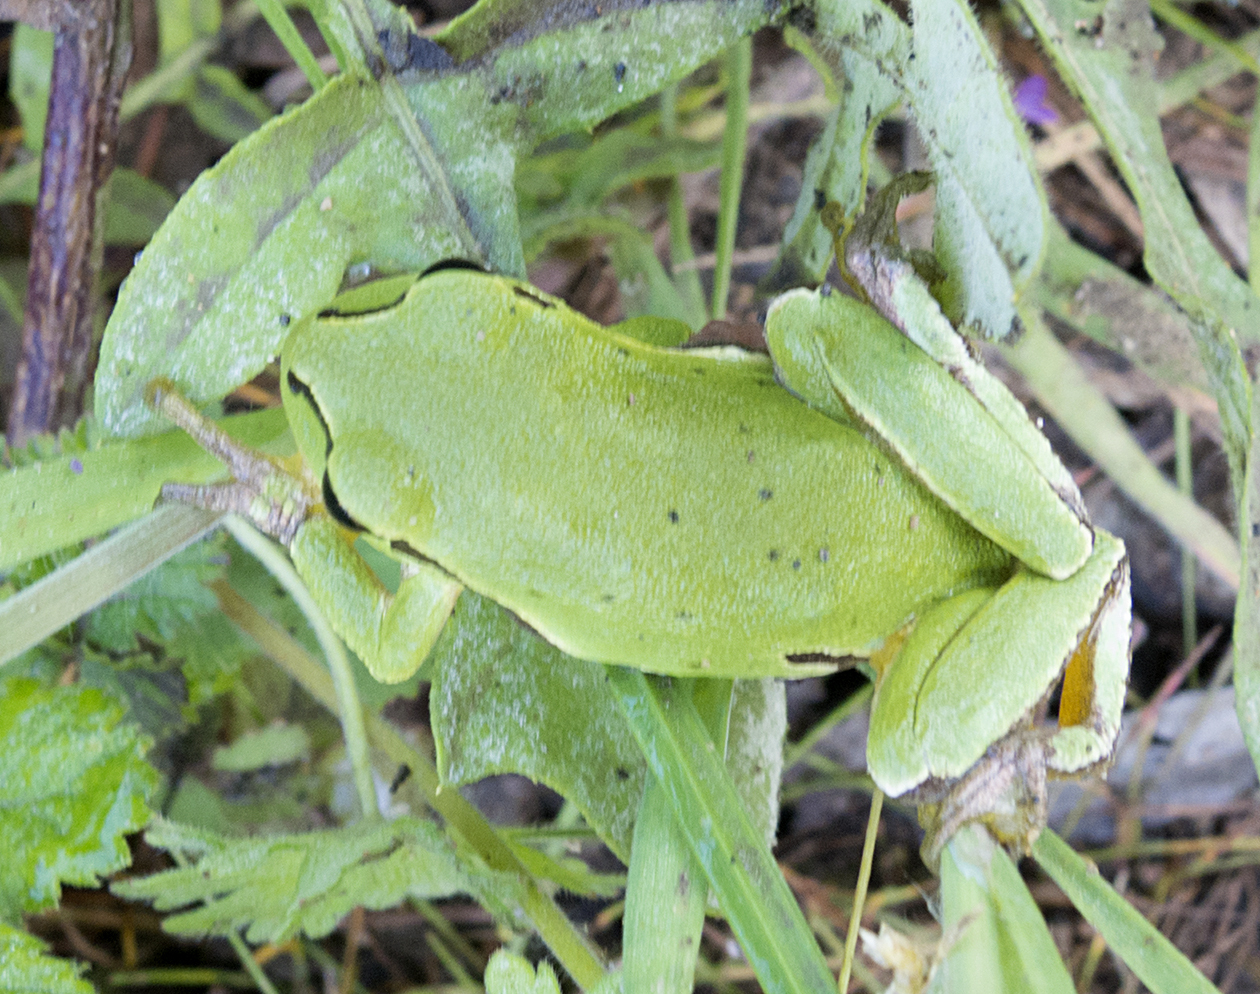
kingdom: Animalia
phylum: Chordata
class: Amphibia
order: Anura
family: Hylidae
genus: Hyla
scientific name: Hyla orientalis
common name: Caucasian treefrog
